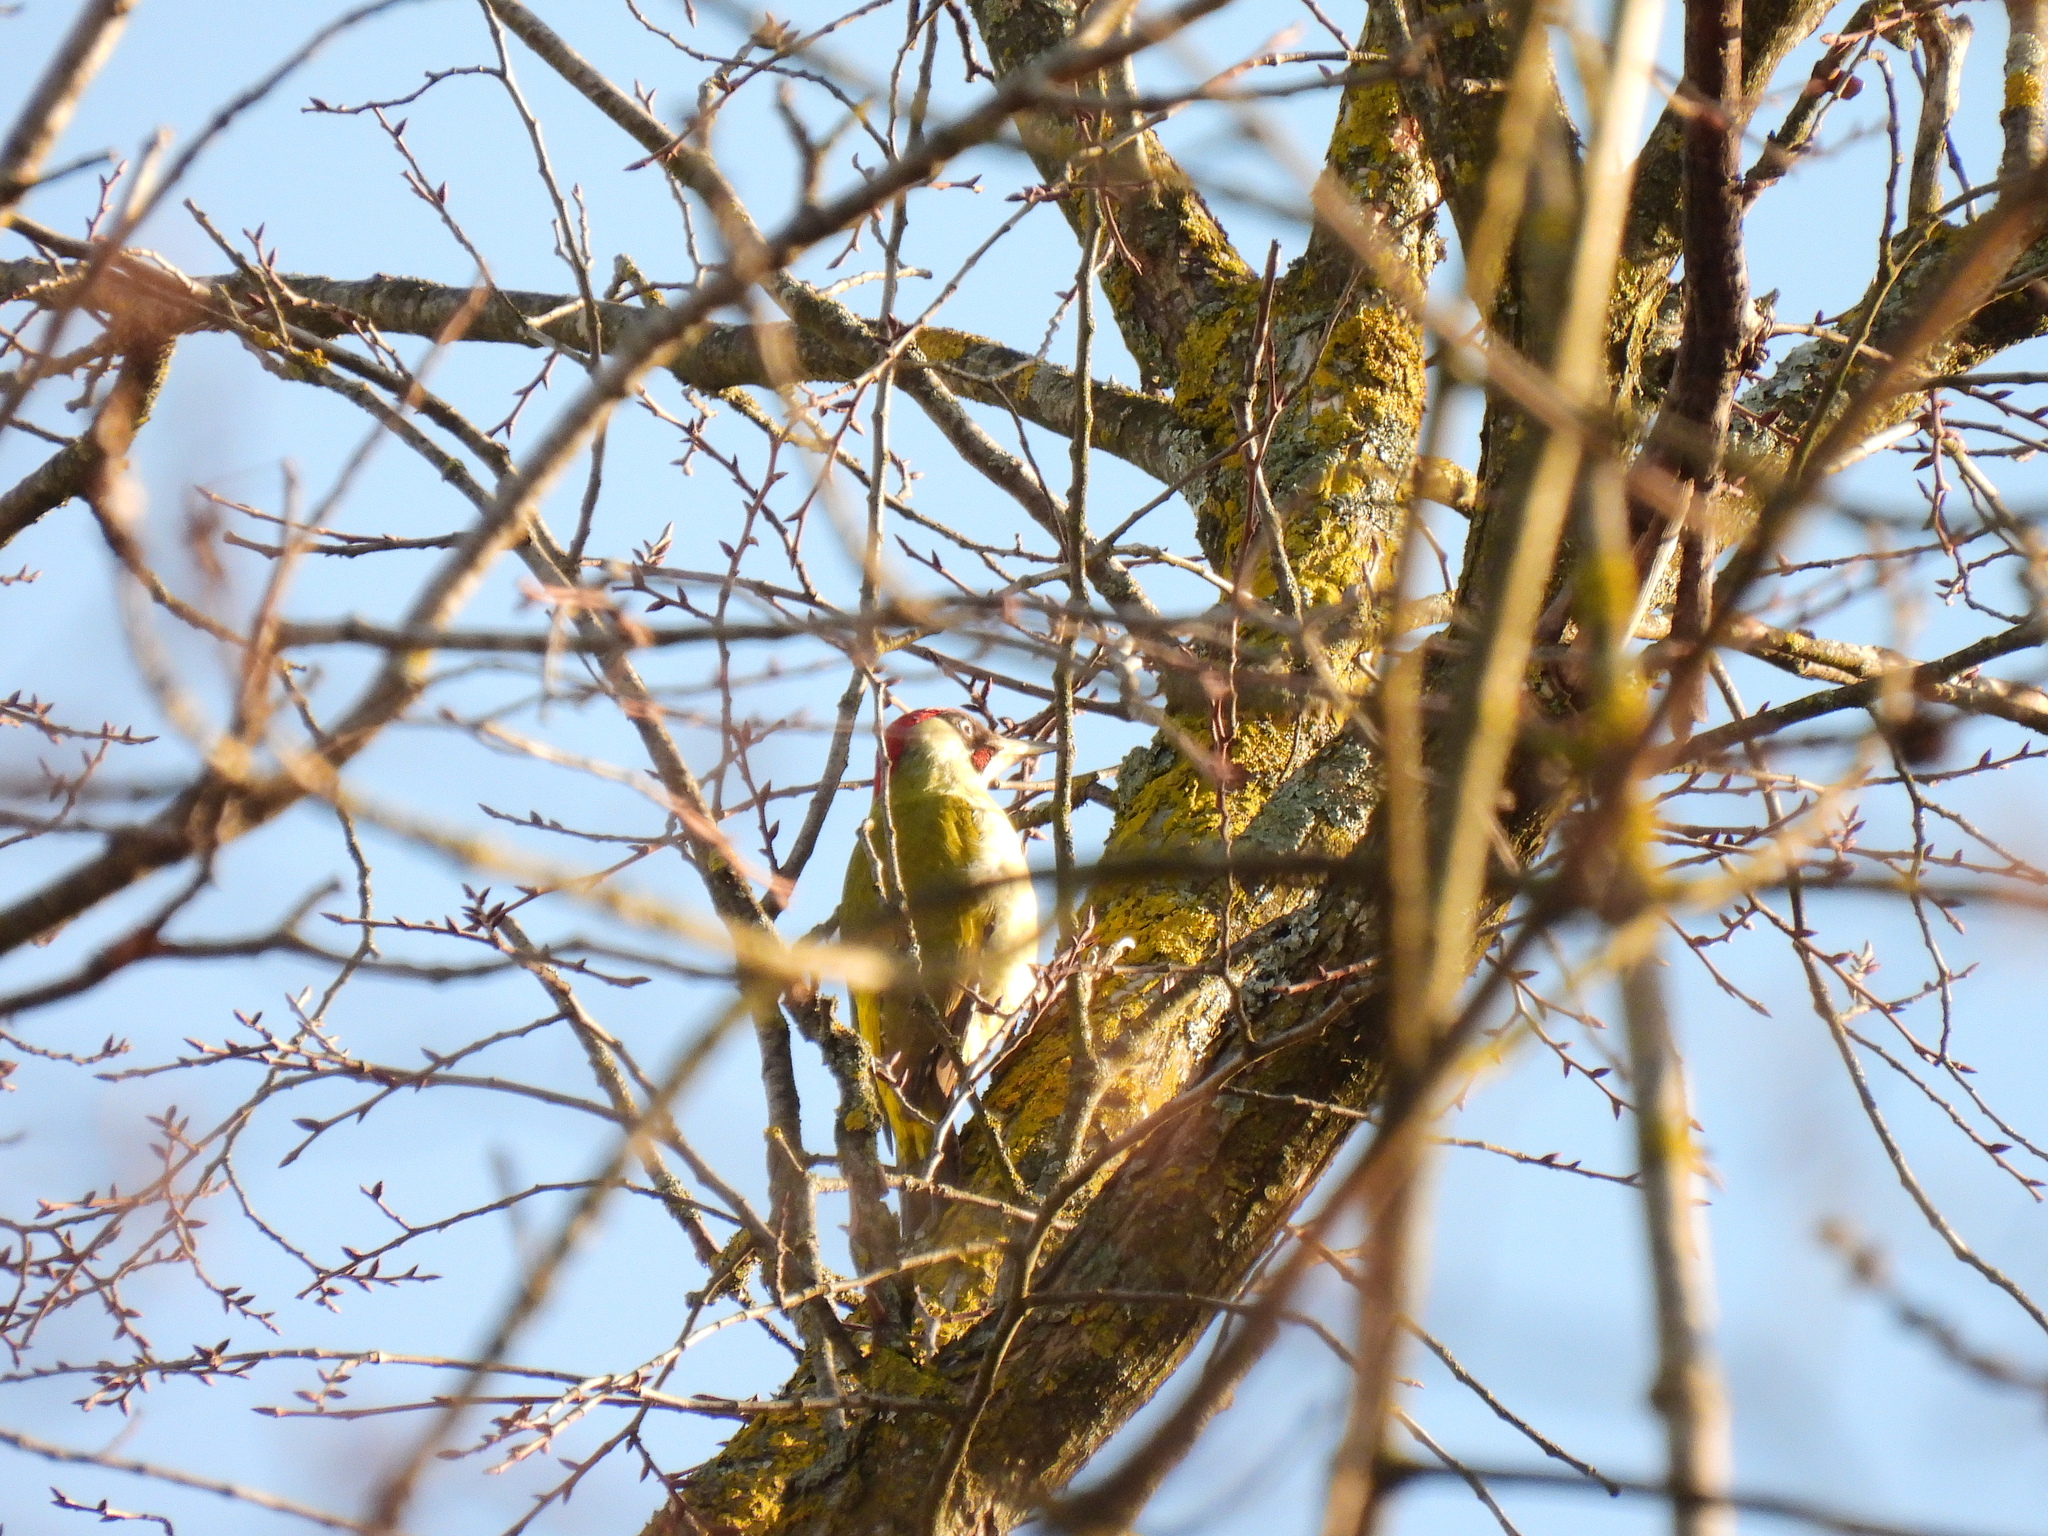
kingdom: Animalia
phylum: Chordata
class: Aves
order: Piciformes
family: Picidae
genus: Picus
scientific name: Picus viridis
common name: European green woodpecker
